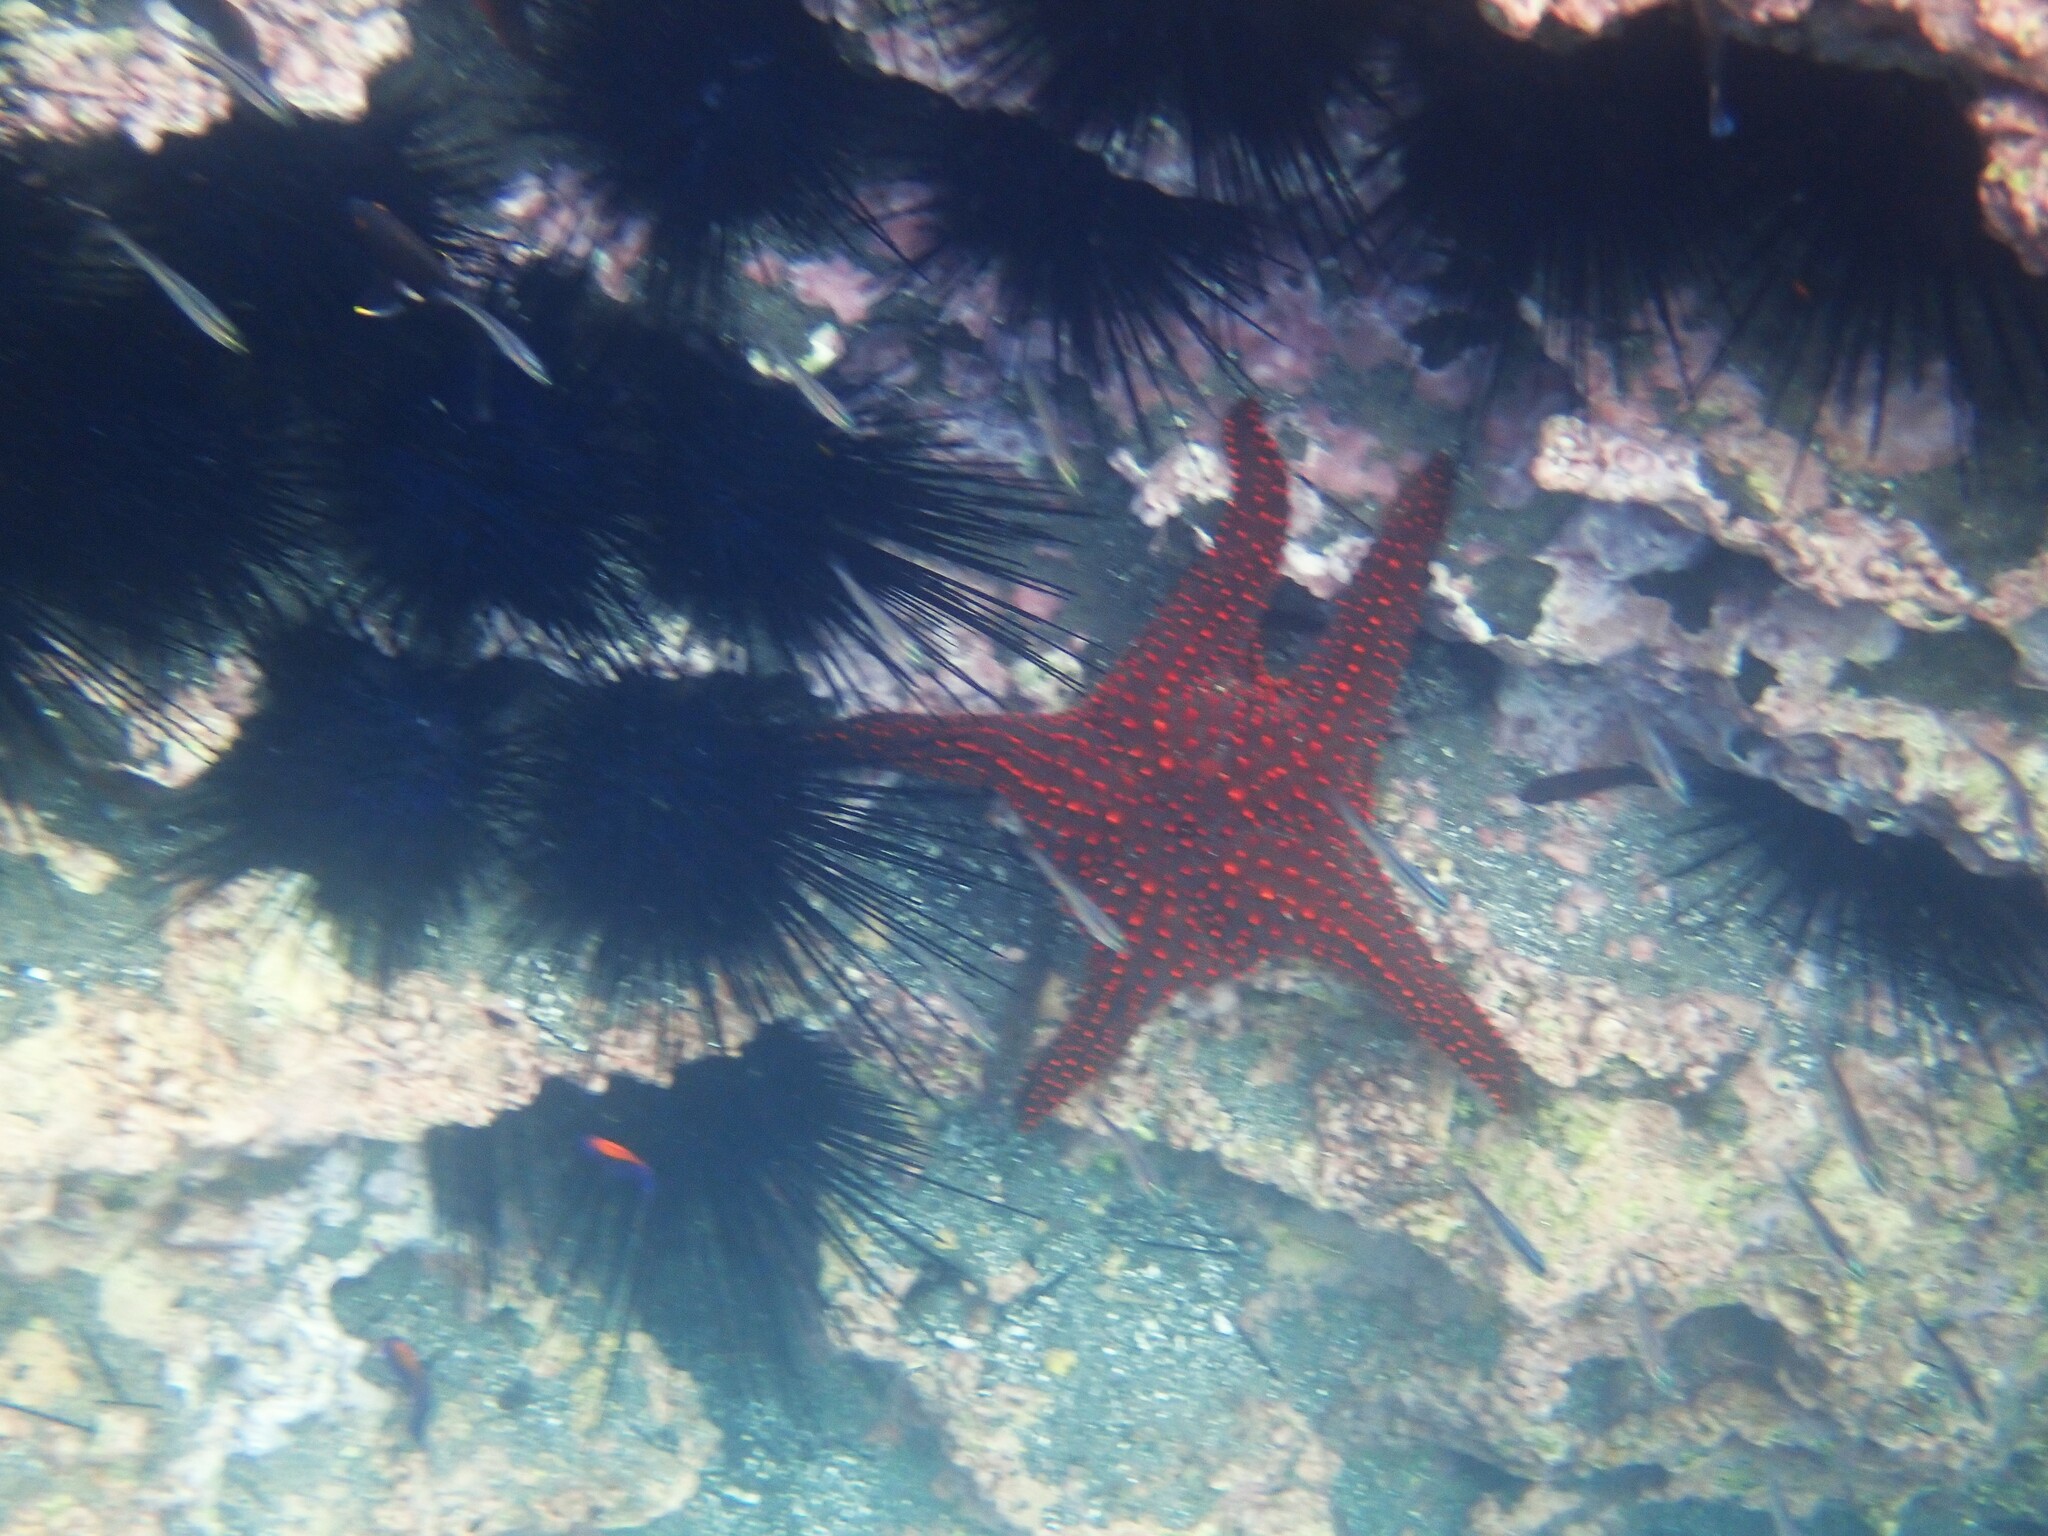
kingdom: Animalia
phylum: Echinodermata
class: Asteroidea
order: Valvatida
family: Oreasteridae
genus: Pentaceraster
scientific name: Pentaceraster cumingi
